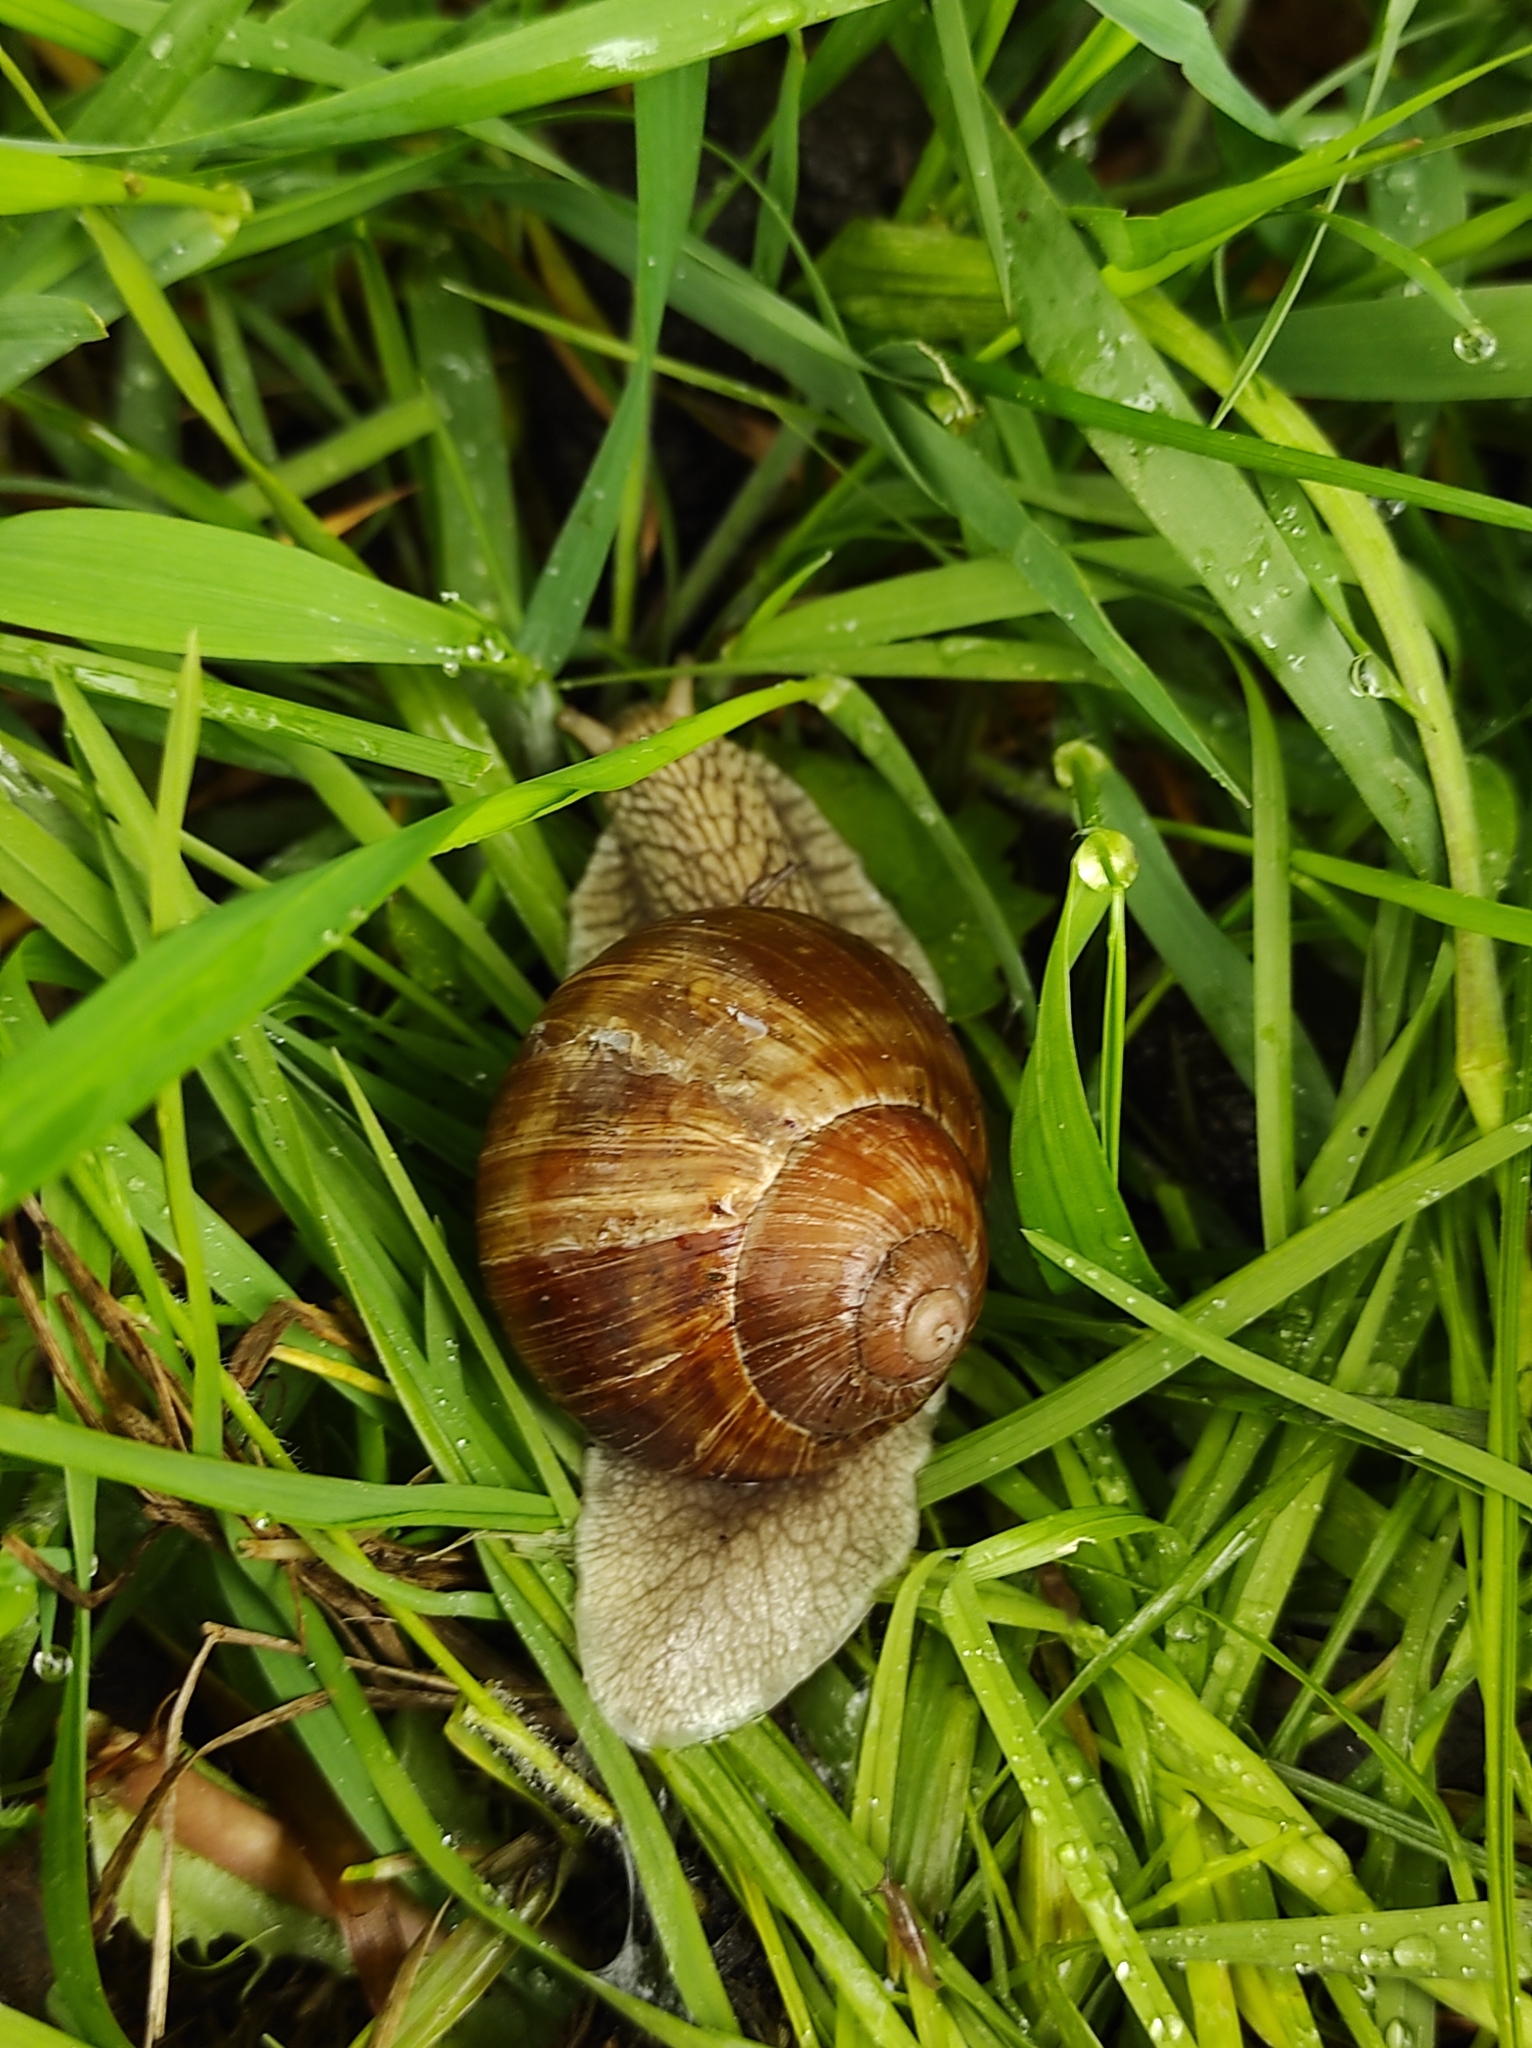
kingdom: Animalia
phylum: Mollusca
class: Gastropoda
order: Stylommatophora
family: Helicidae
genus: Helix
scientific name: Helix pomatia
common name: Roman snail
